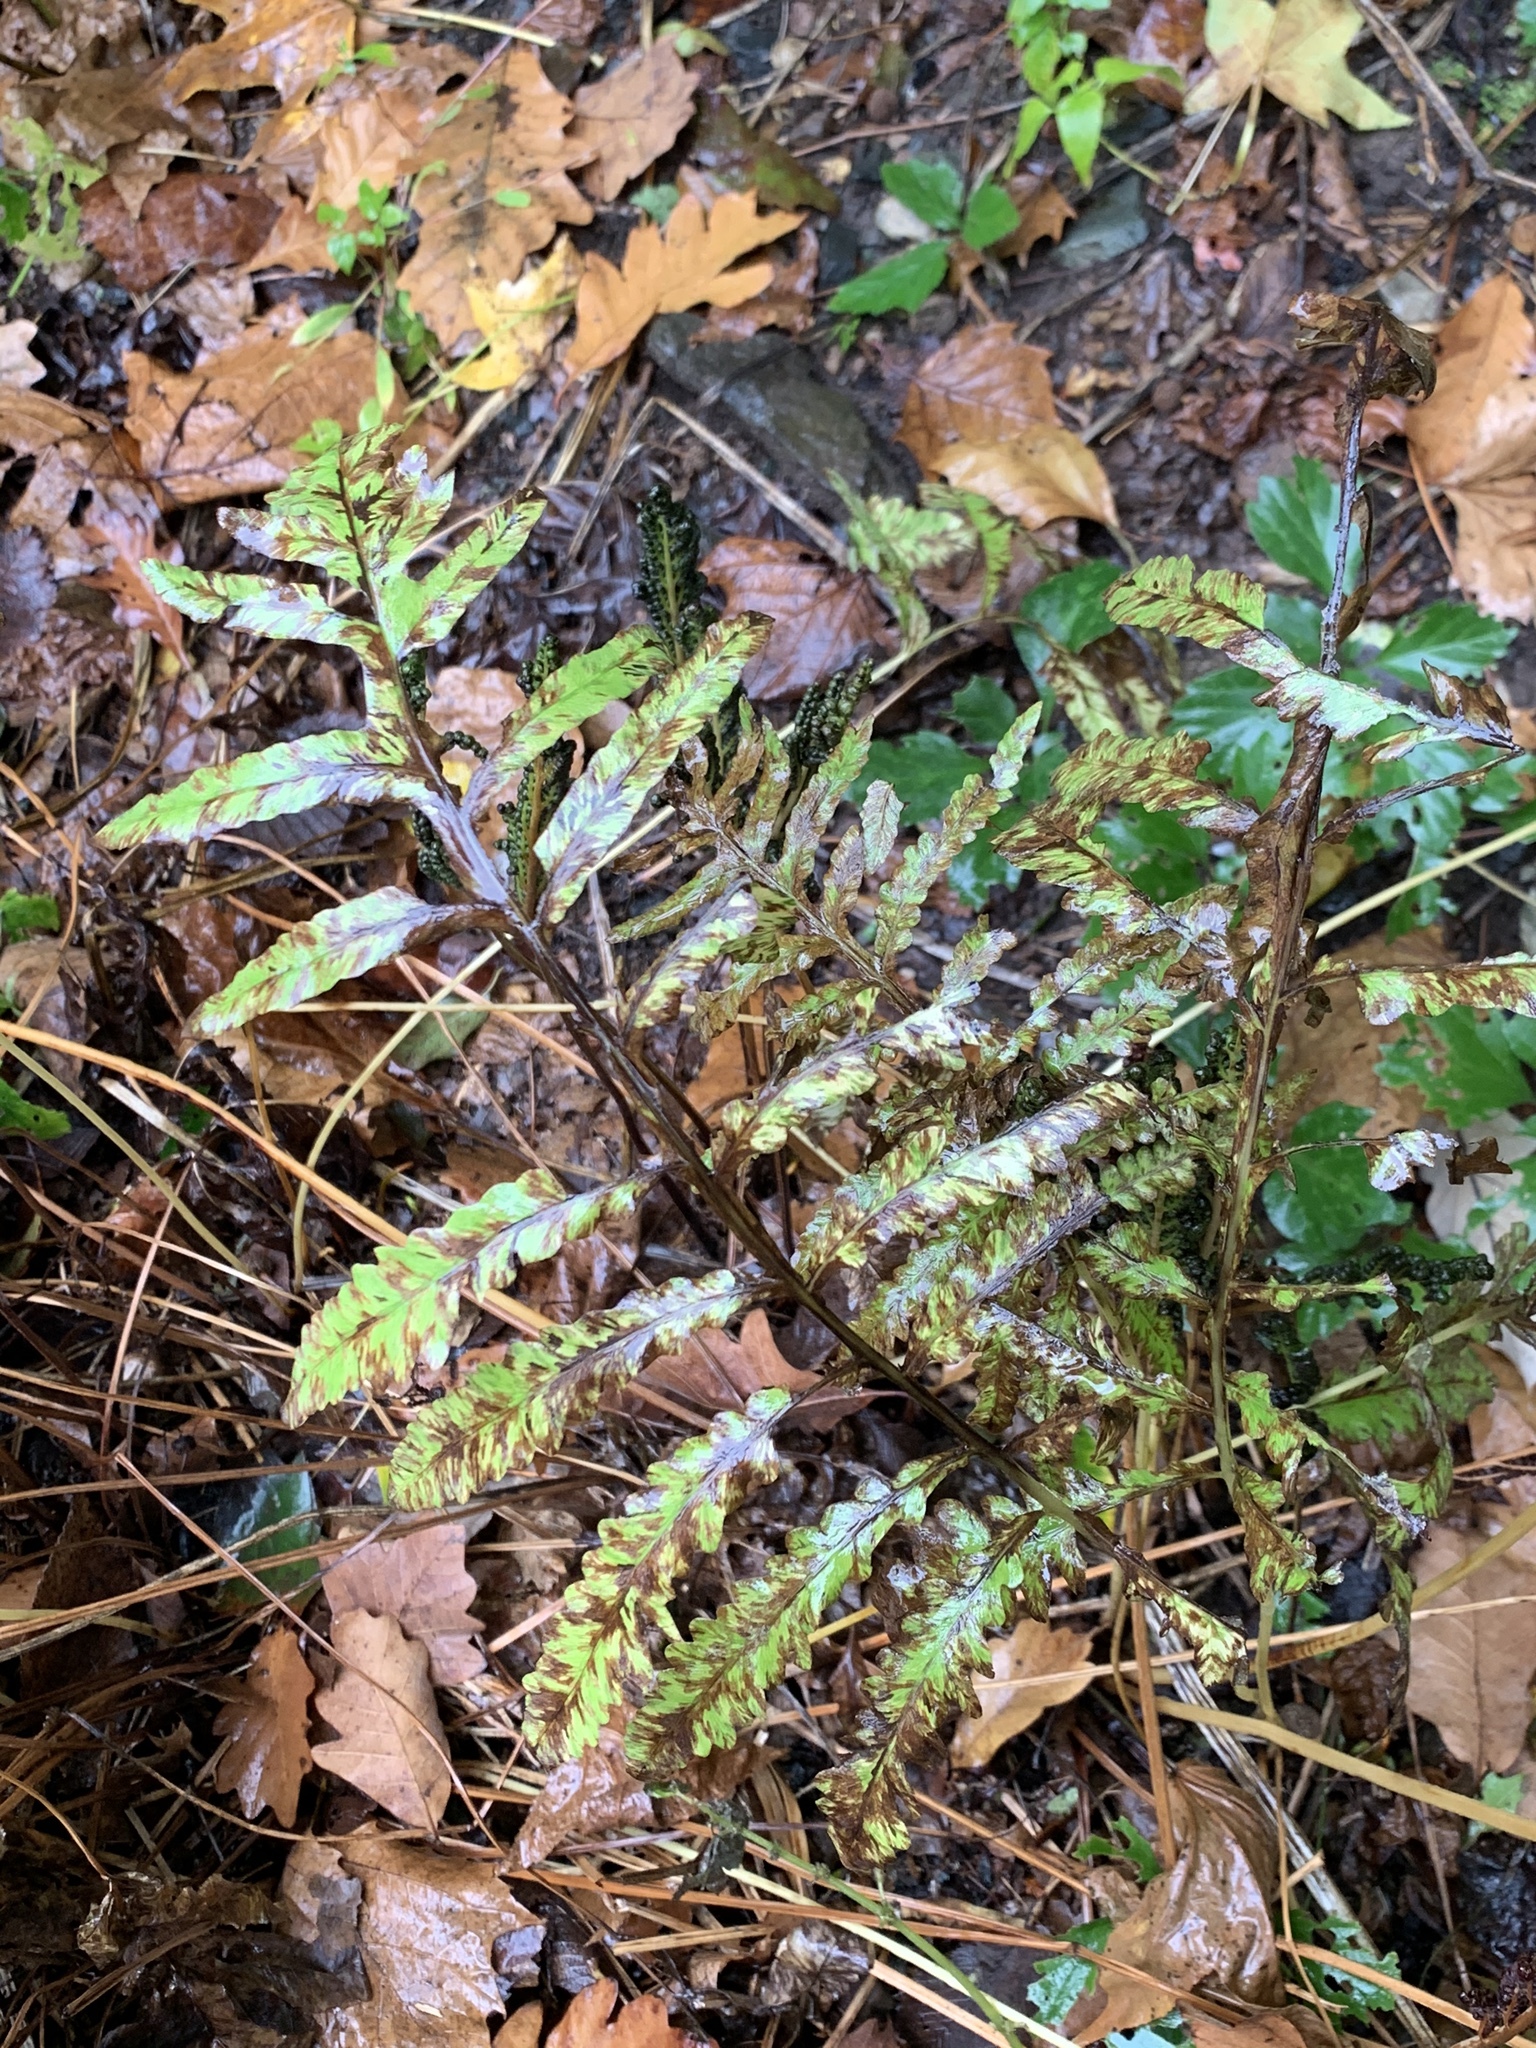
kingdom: Plantae
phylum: Tracheophyta
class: Polypodiopsida
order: Polypodiales
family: Onocleaceae
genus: Onoclea
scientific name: Onoclea sensibilis
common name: Sensitive fern
